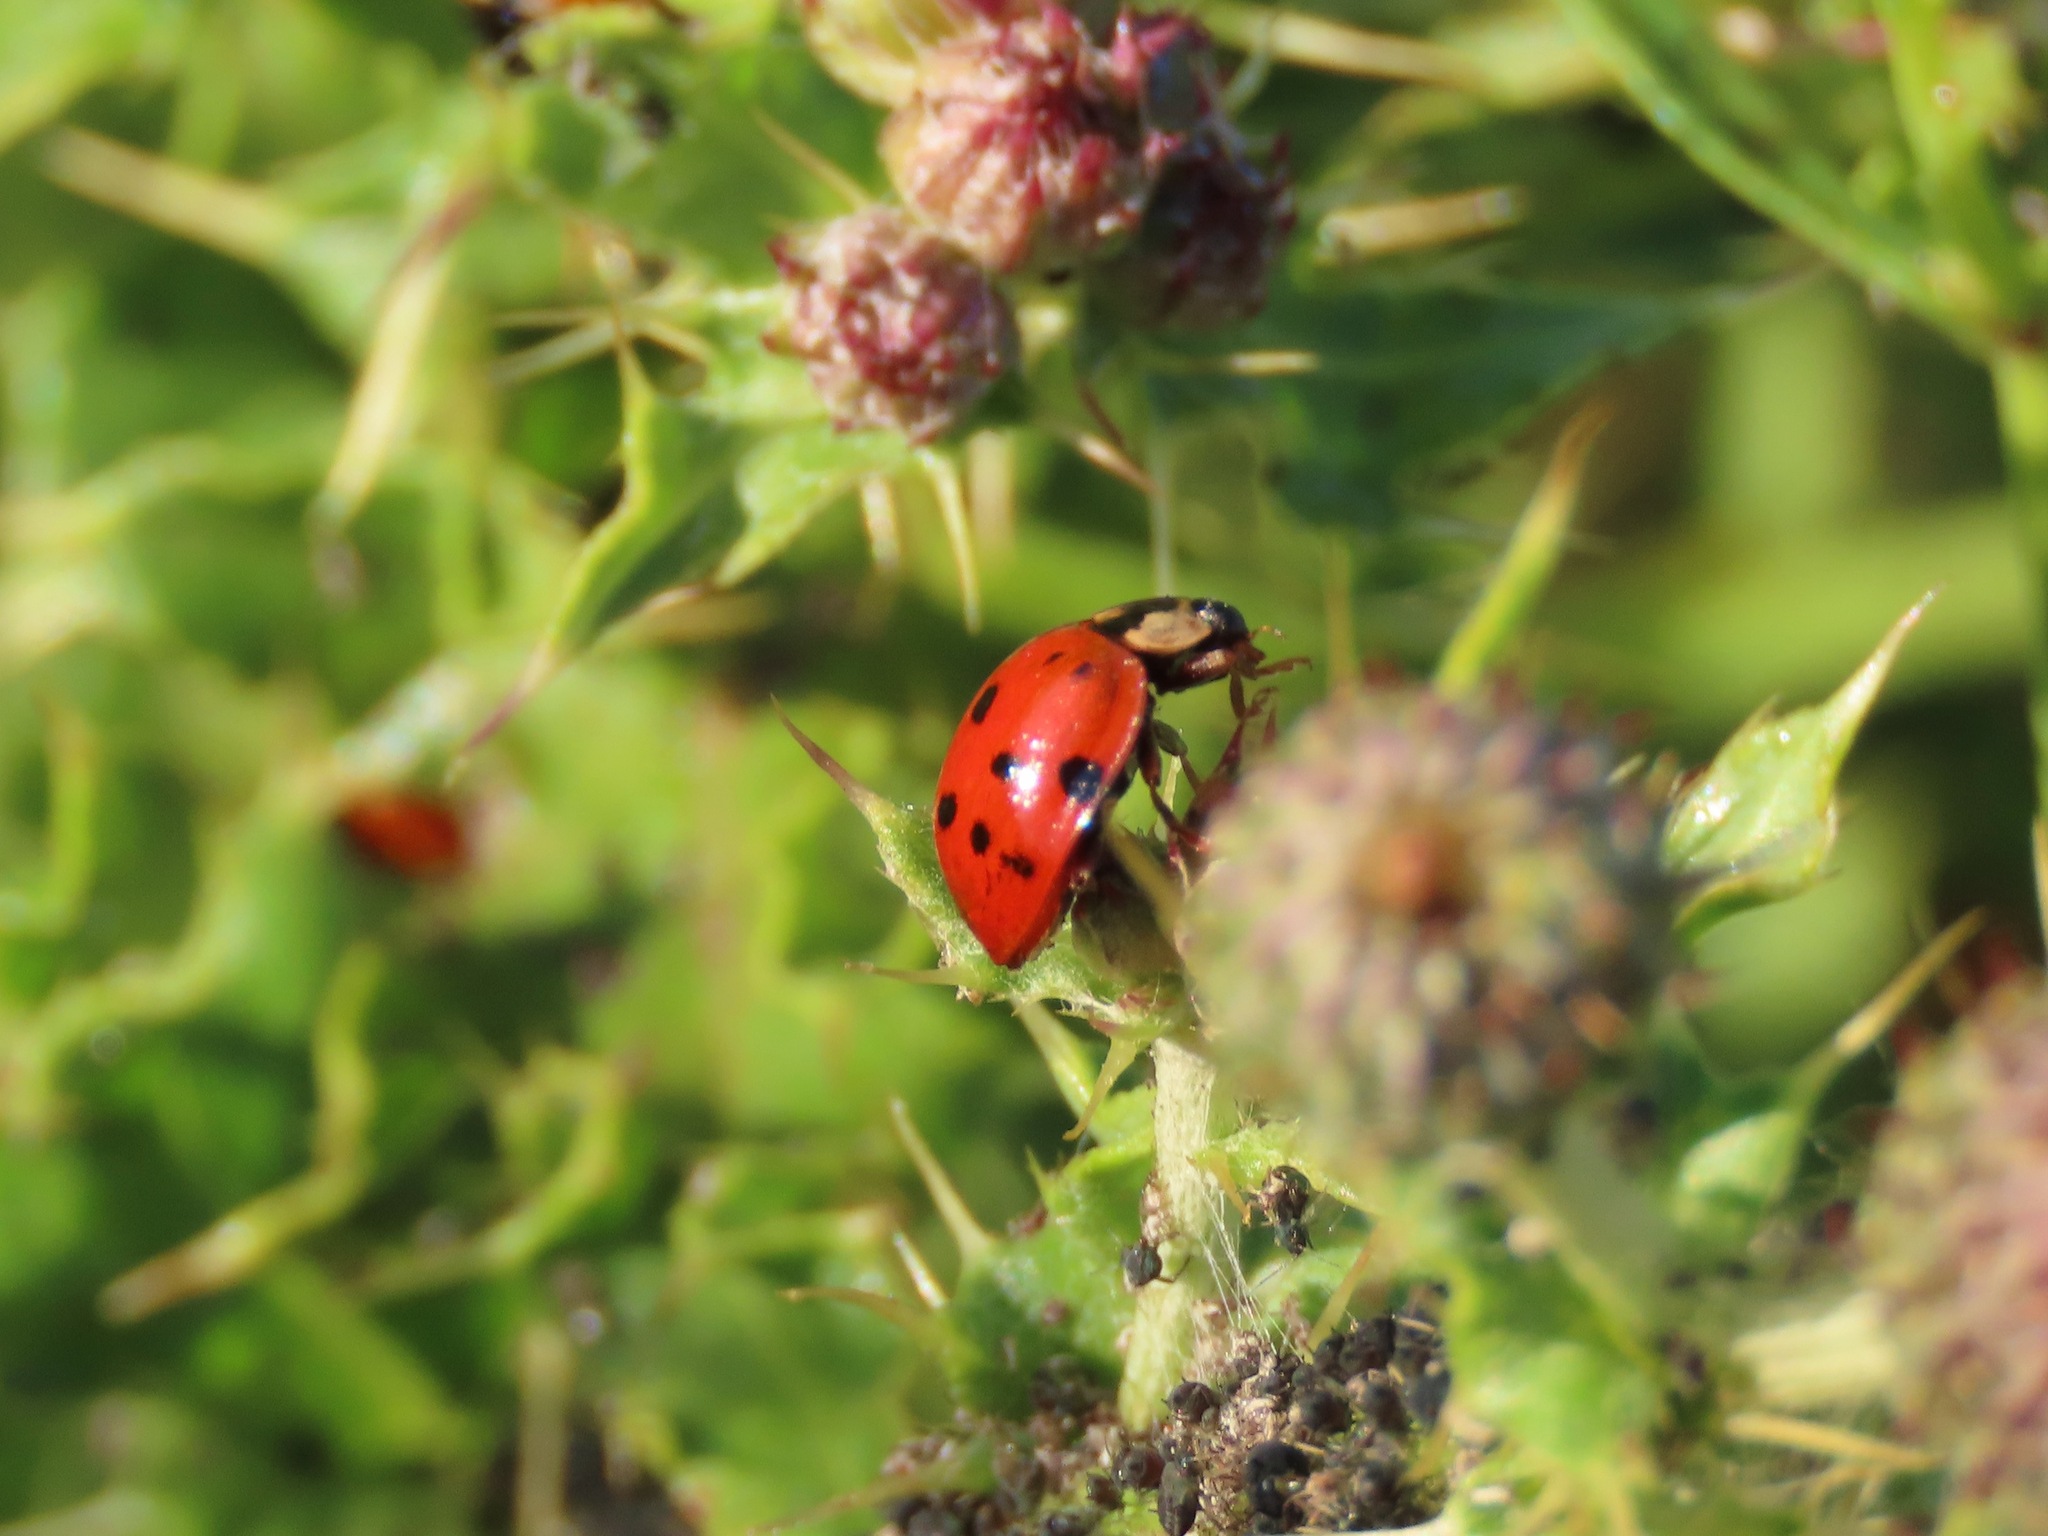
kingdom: Animalia
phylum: Arthropoda
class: Insecta
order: Coleoptera
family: Coccinellidae
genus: Harmonia
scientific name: Harmonia axyridis
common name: Harlequin ladybird
